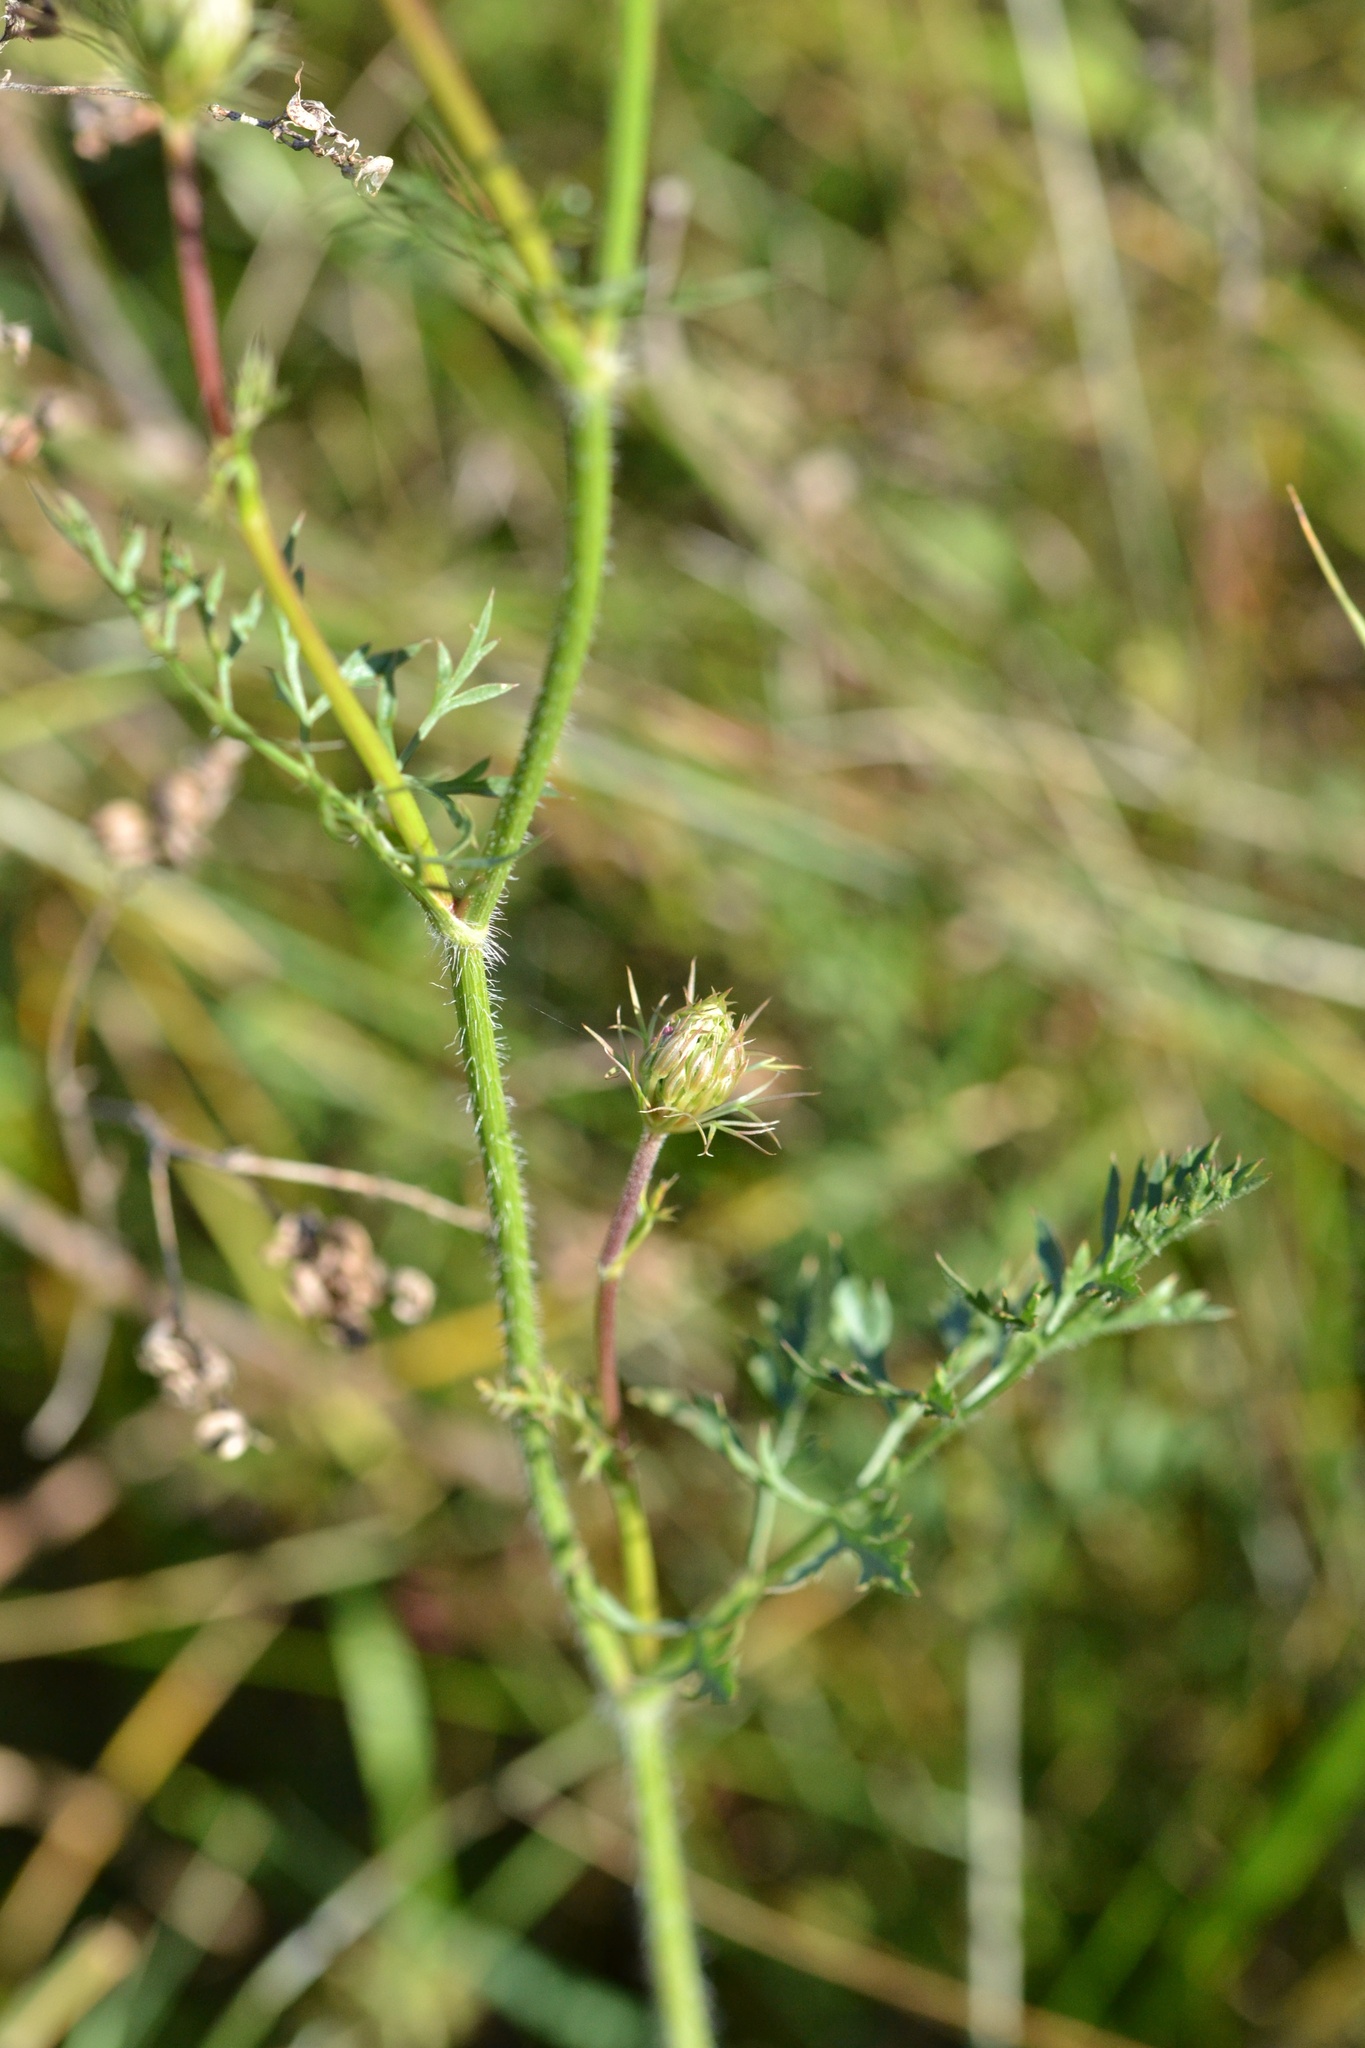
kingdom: Plantae
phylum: Tracheophyta
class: Magnoliopsida
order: Apiales
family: Apiaceae
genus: Daucus
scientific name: Daucus carota
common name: Wild carrot
